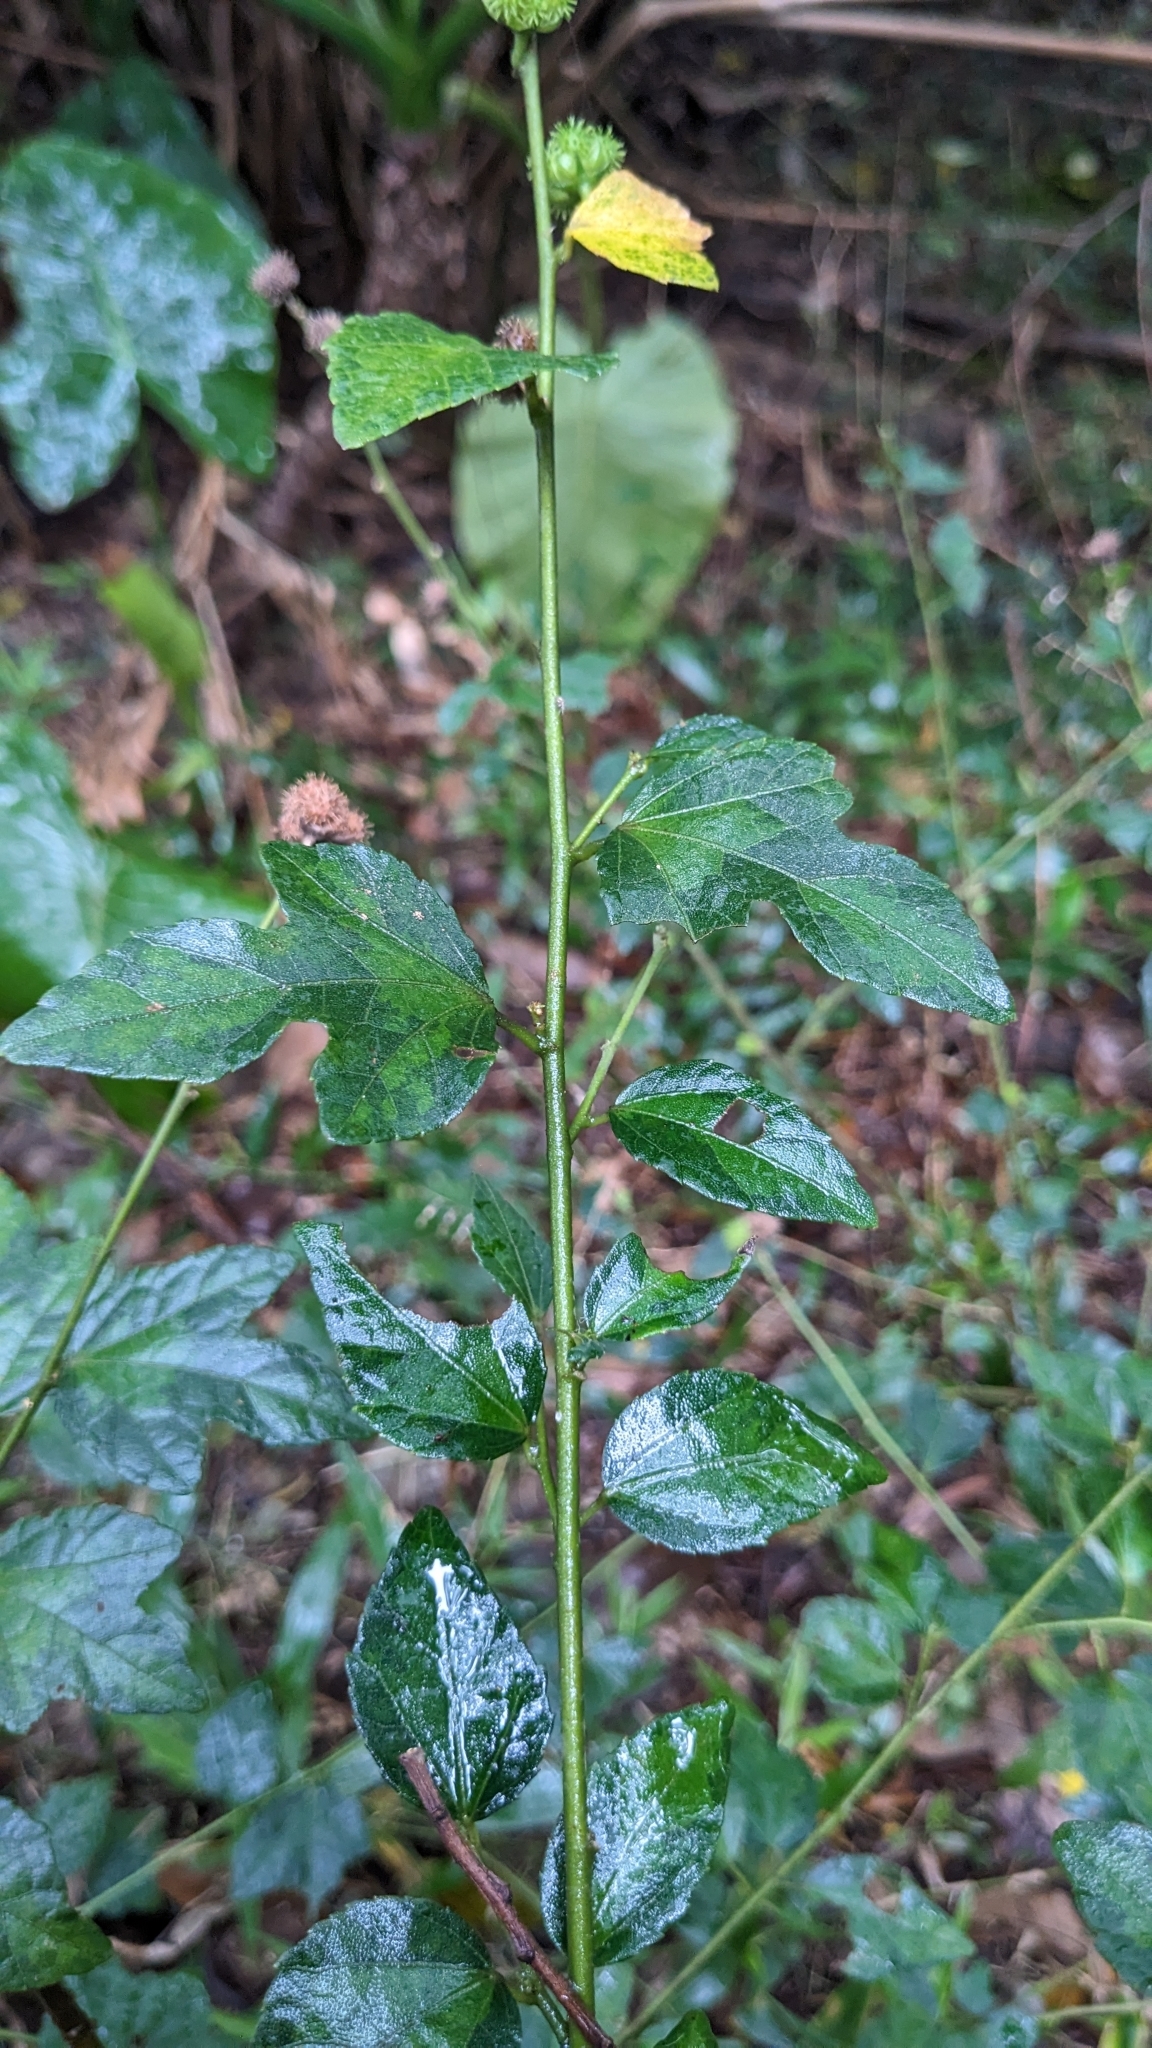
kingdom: Plantae
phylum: Tracheophyta
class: Magnoliopsida
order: Malvales
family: Malvaceae
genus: Urena
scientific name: Urena procumbens
